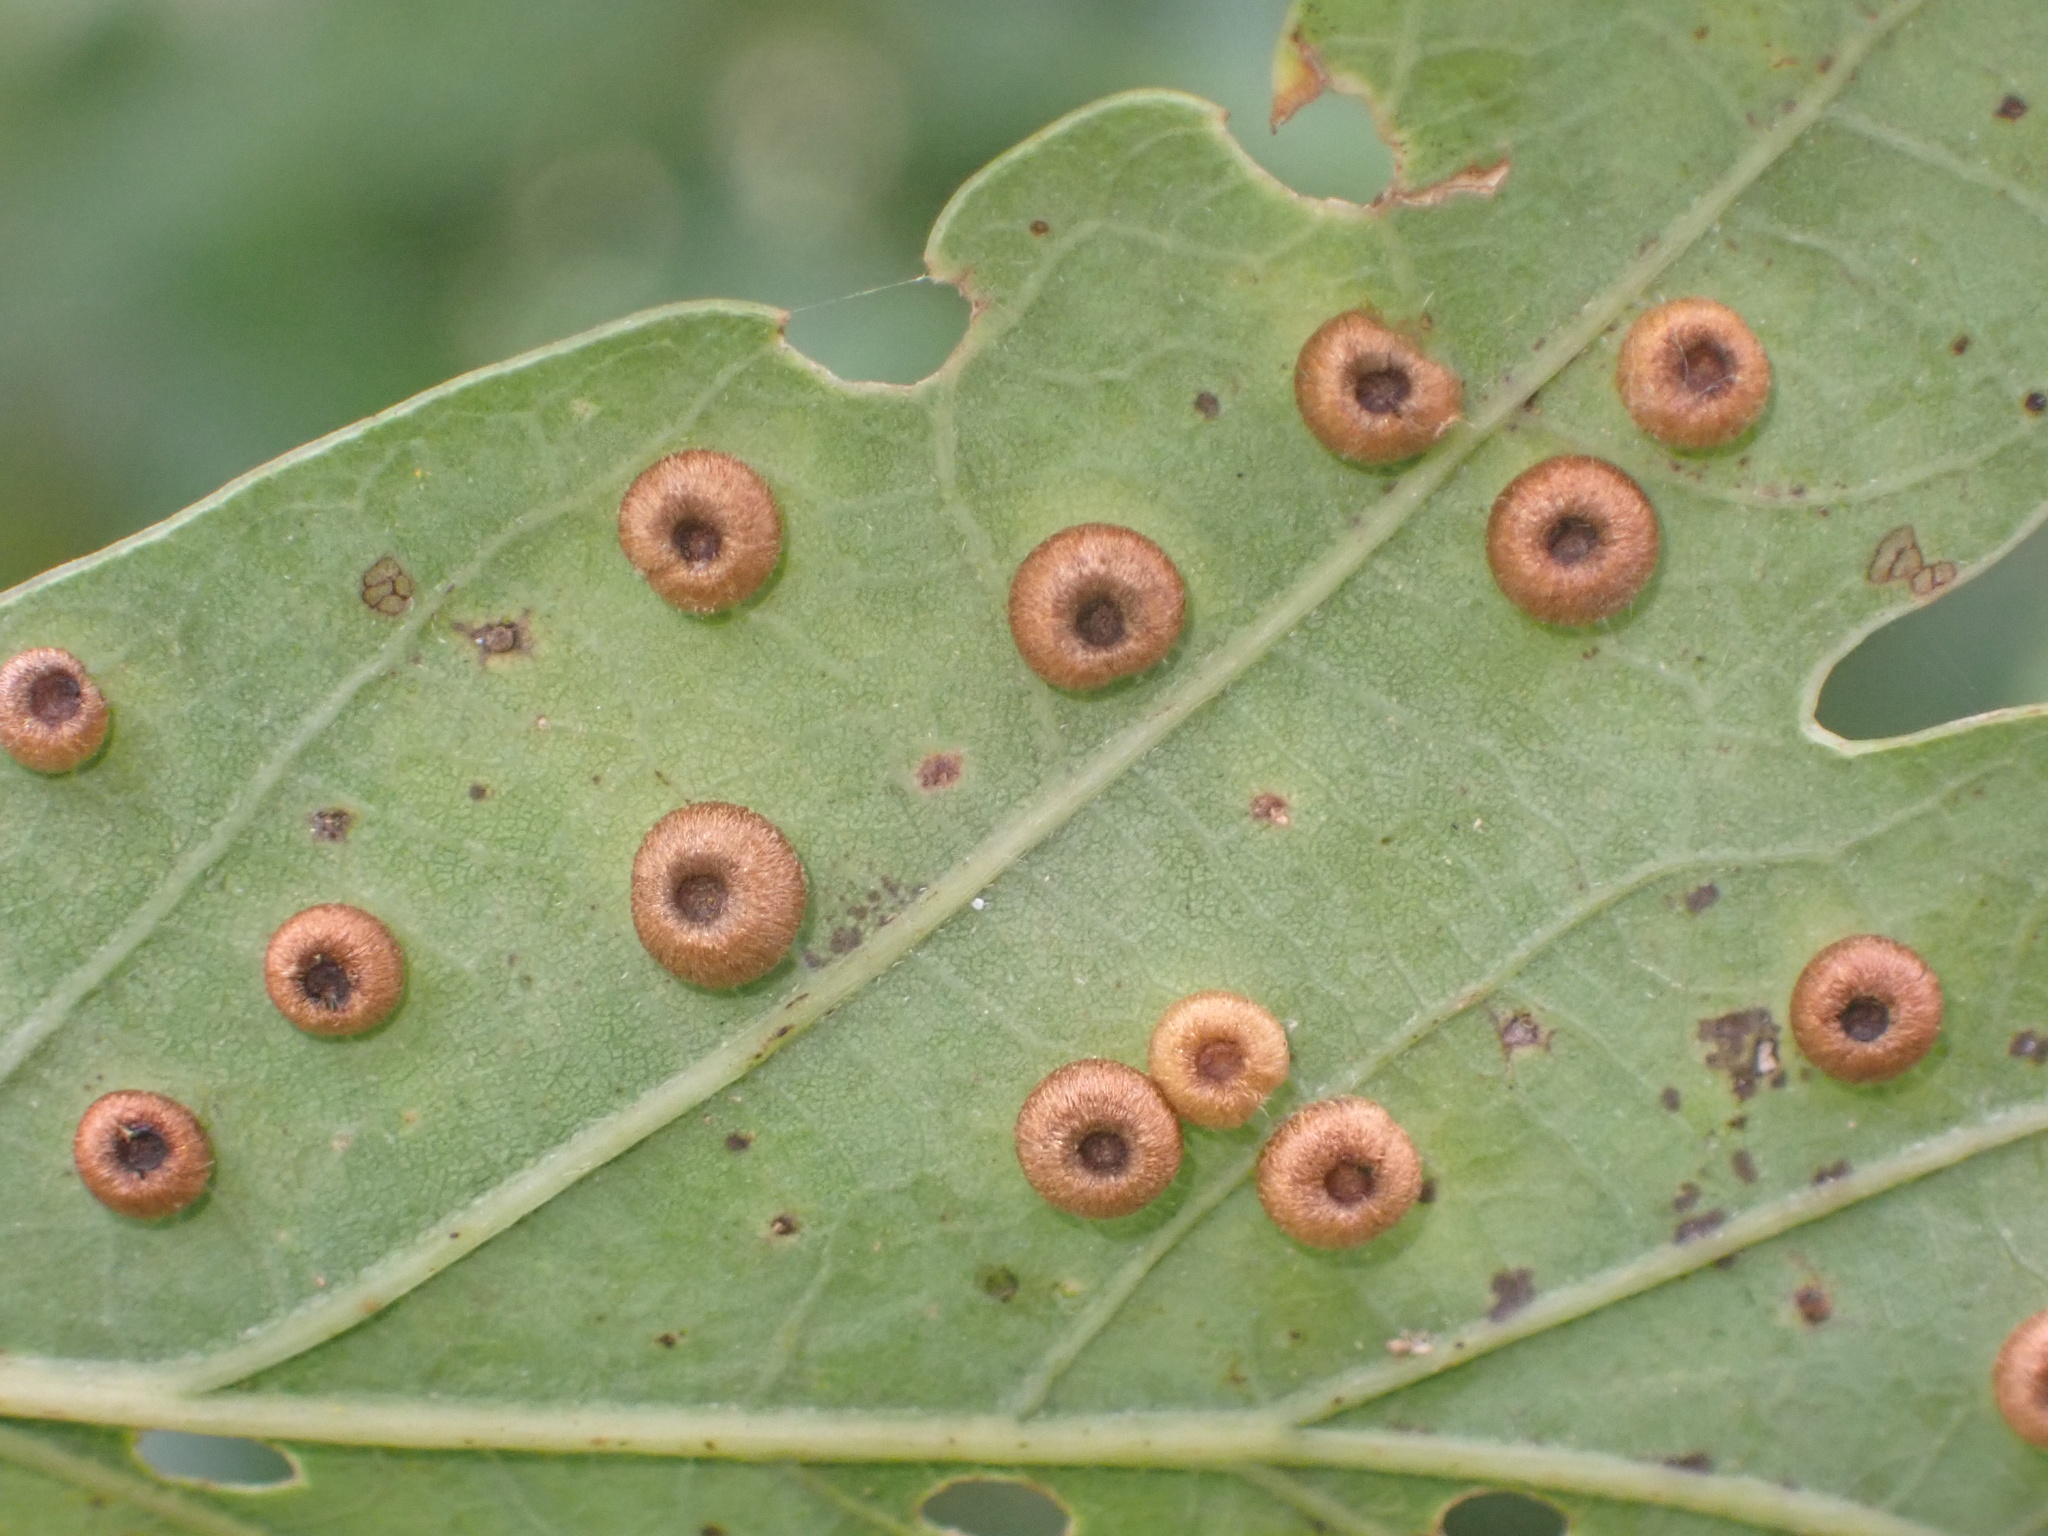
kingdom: Animalia
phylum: Arthropoda
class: Insecta
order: Hymenoptera
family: Cynipidae
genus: Neuroterus
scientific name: Neuroterus numismalis
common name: Silk-button spangle gall
